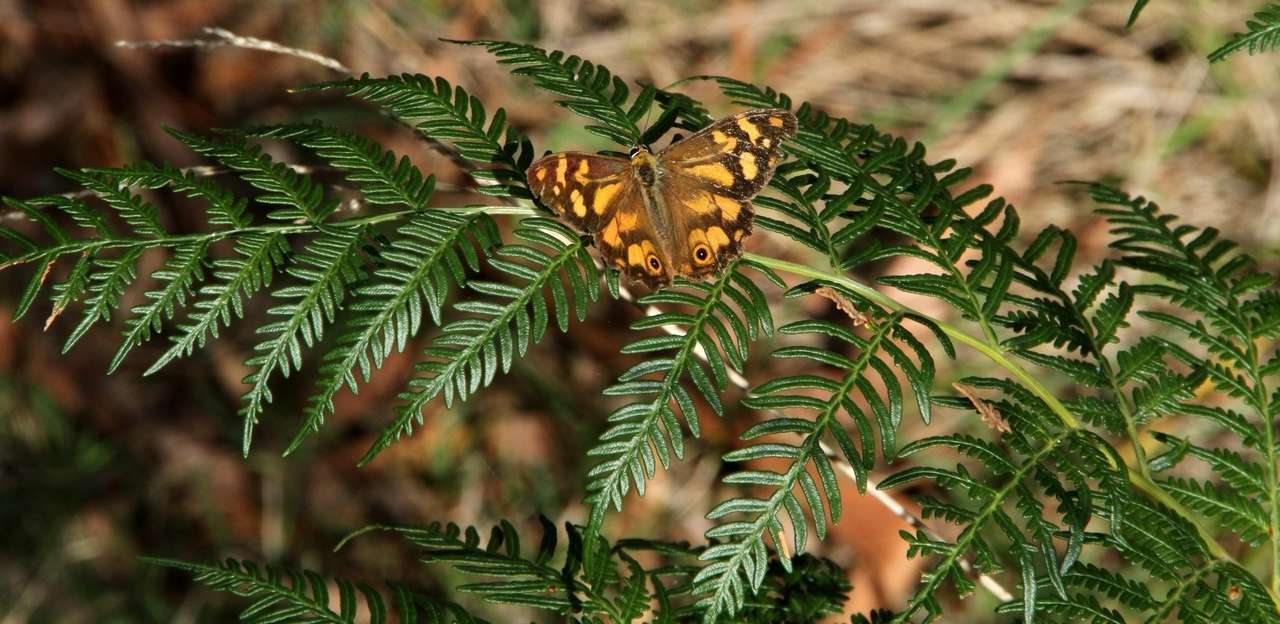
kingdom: Animalia
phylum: Arthropoda
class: Insecta
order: Lepidoptera
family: Nymphalidae
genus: Heteronympha
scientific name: Heteronympha banksii
